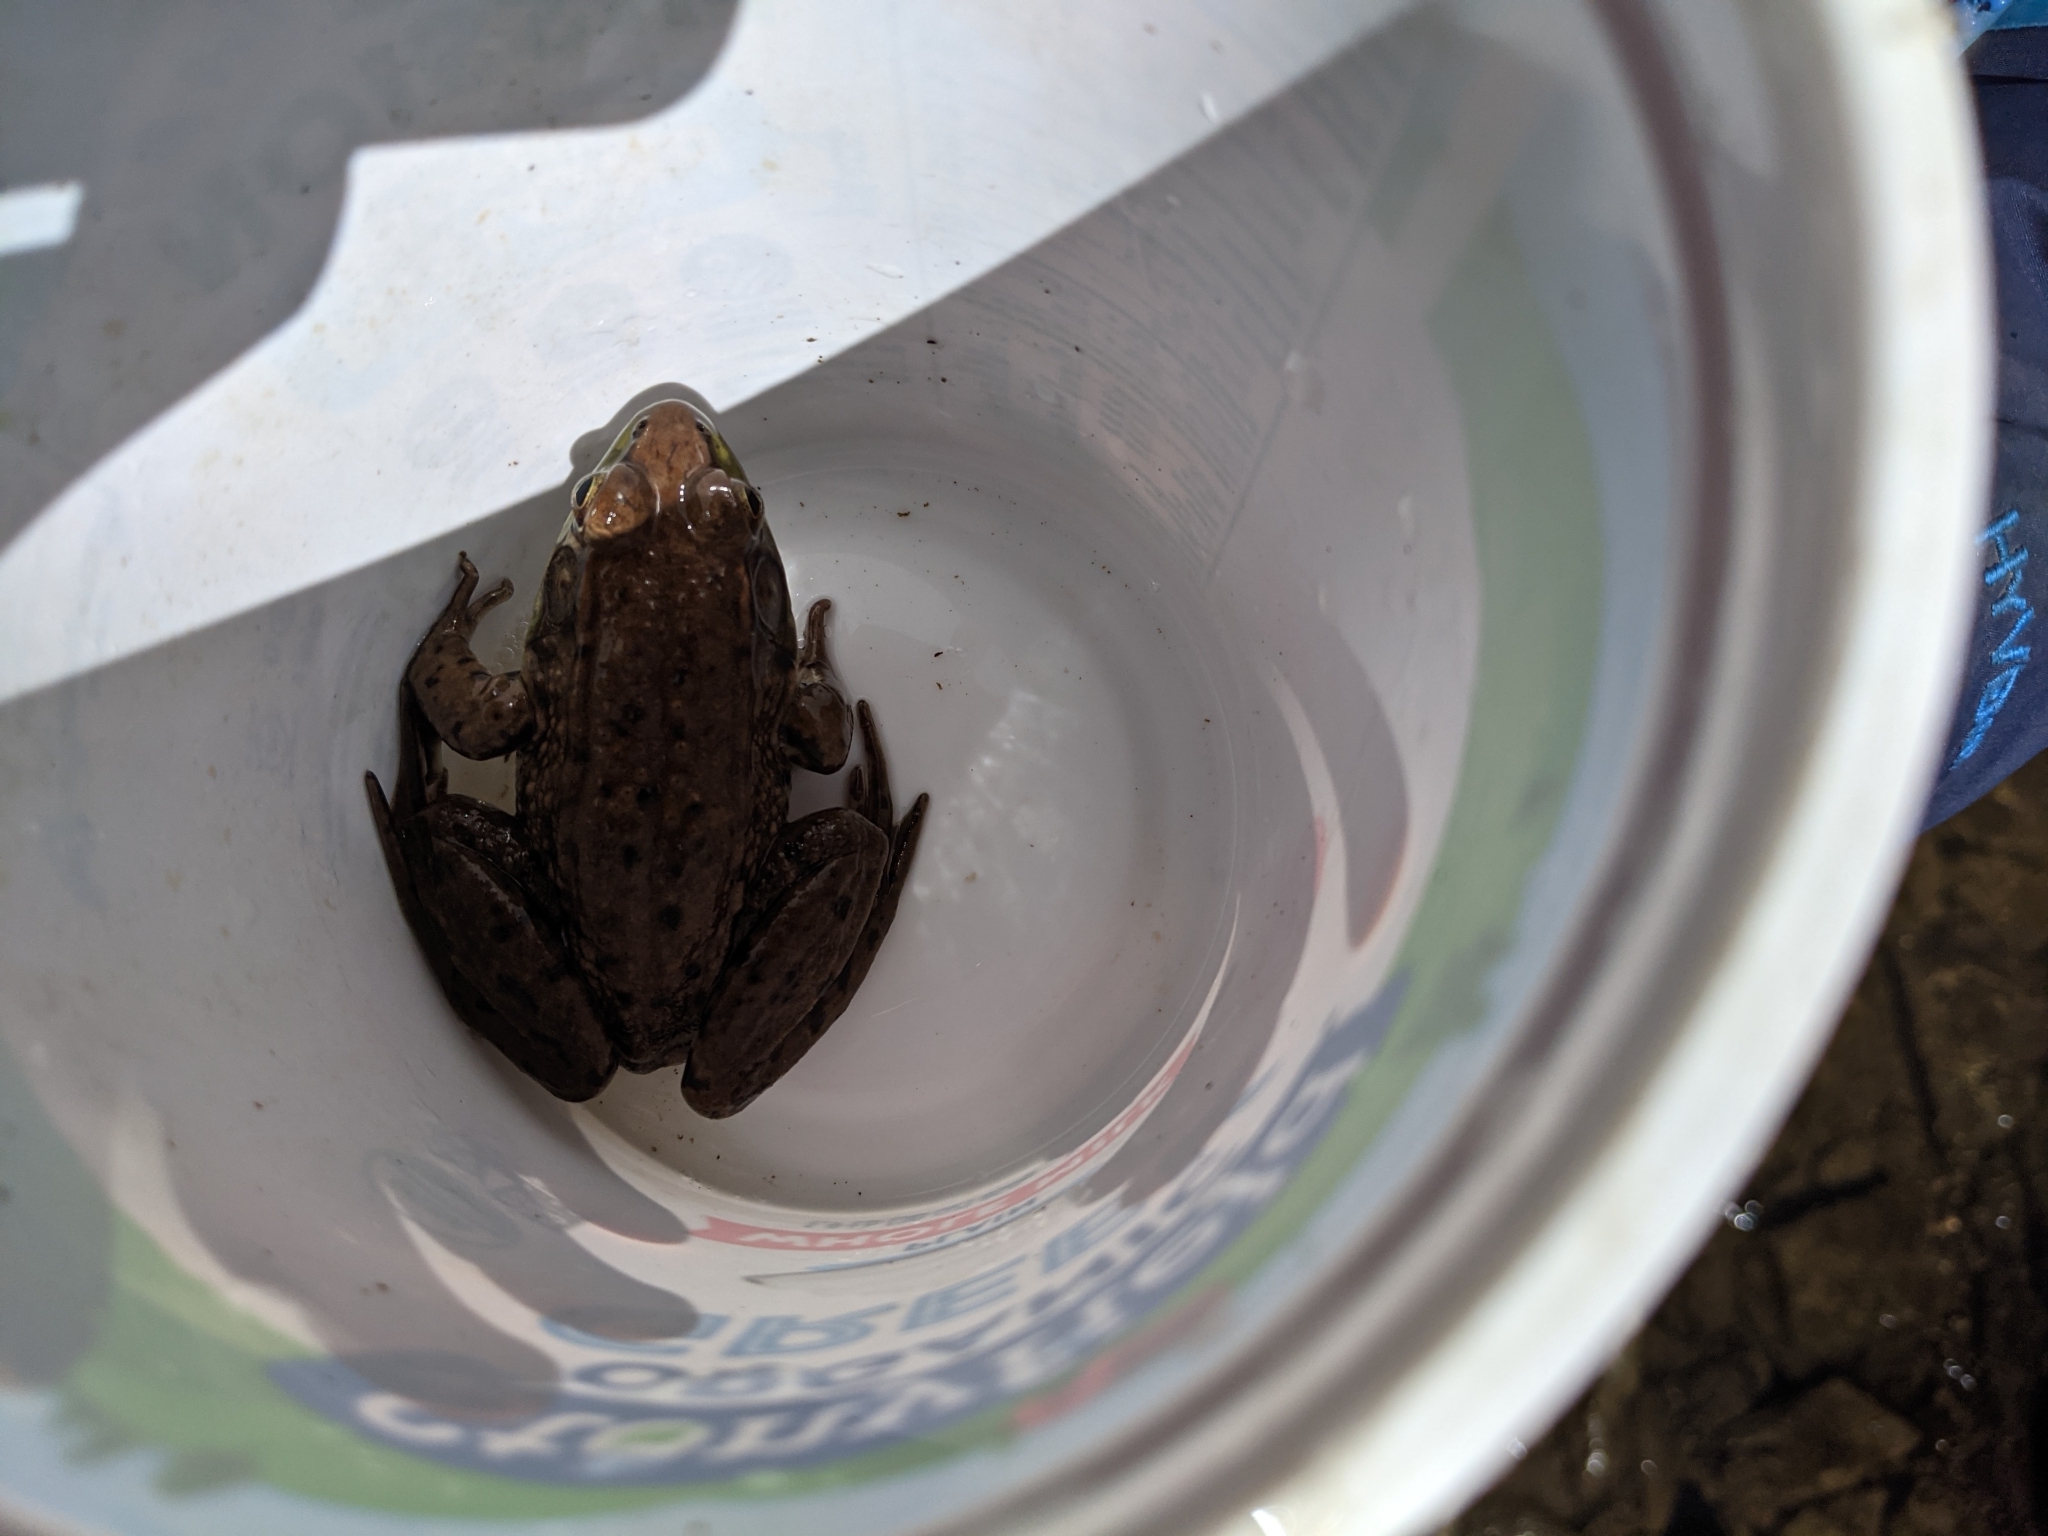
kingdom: Animalia
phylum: Chordata
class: Amphibia
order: Anura
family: Ranidae
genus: Lithobates
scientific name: Lithobates clamitans
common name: Green frog
